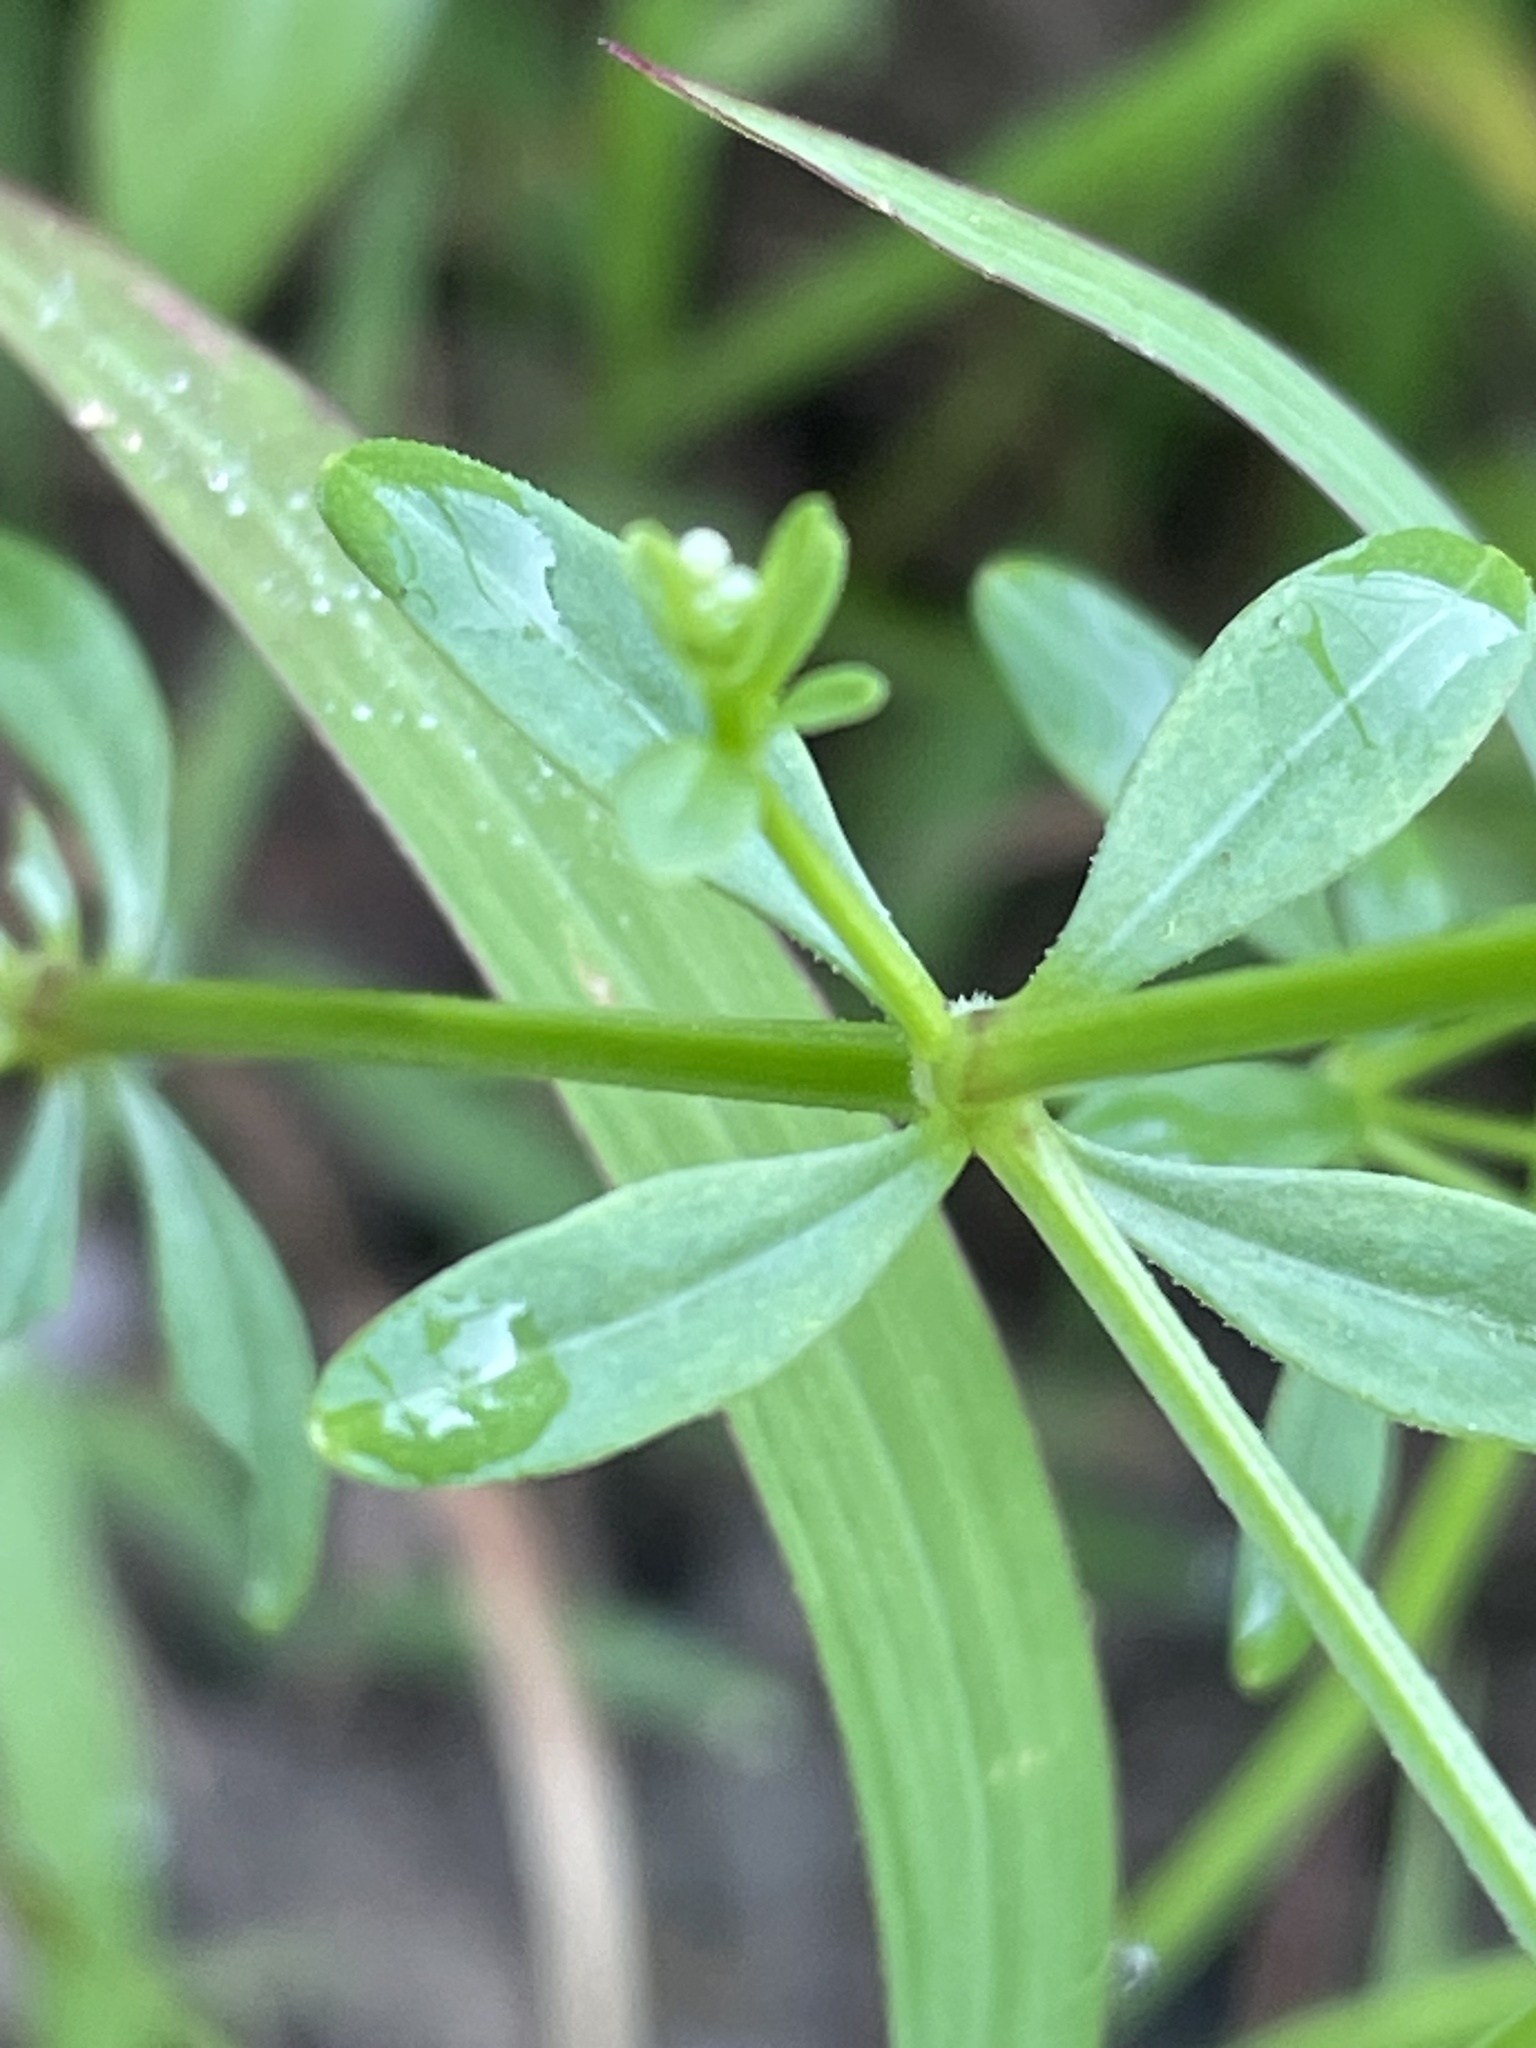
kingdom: Plantae
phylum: Tracheophyta
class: Magnoliopsida
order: Gentianales
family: Rubiaceae
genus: Galium
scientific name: Galium tinctorium
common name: Bedstraw
